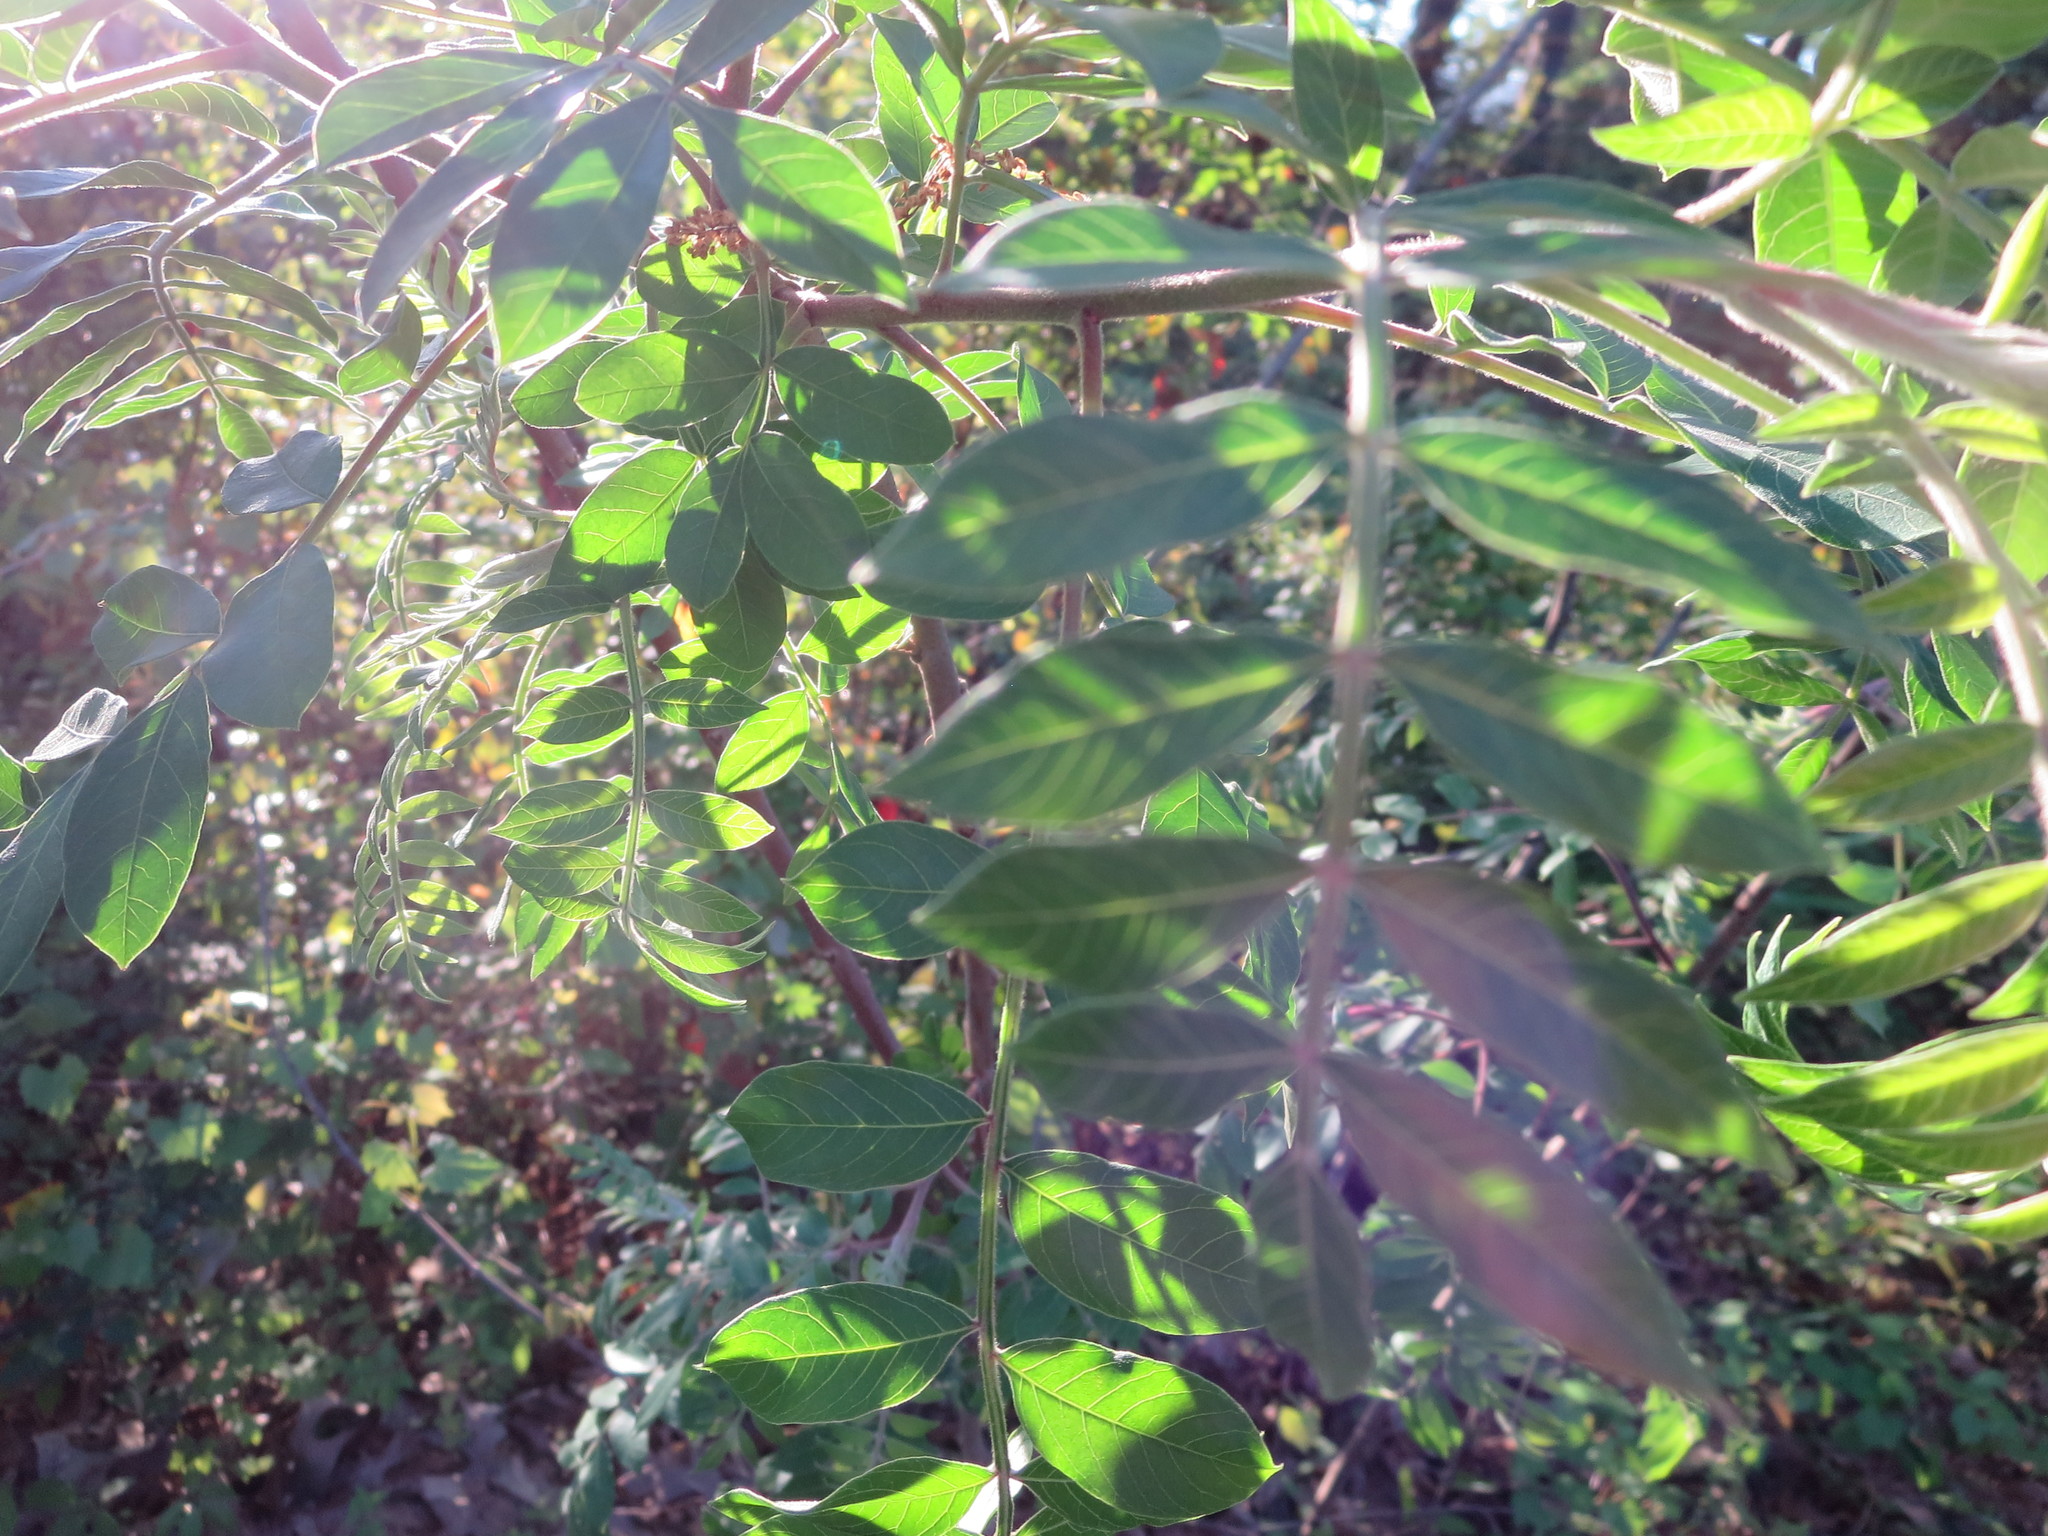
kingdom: Plantae
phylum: Tracheophyta
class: Magnoliopsida
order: Sapindales
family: Anacardiaceae
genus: Rhus
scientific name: Rhus copallina
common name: Shining sumac
